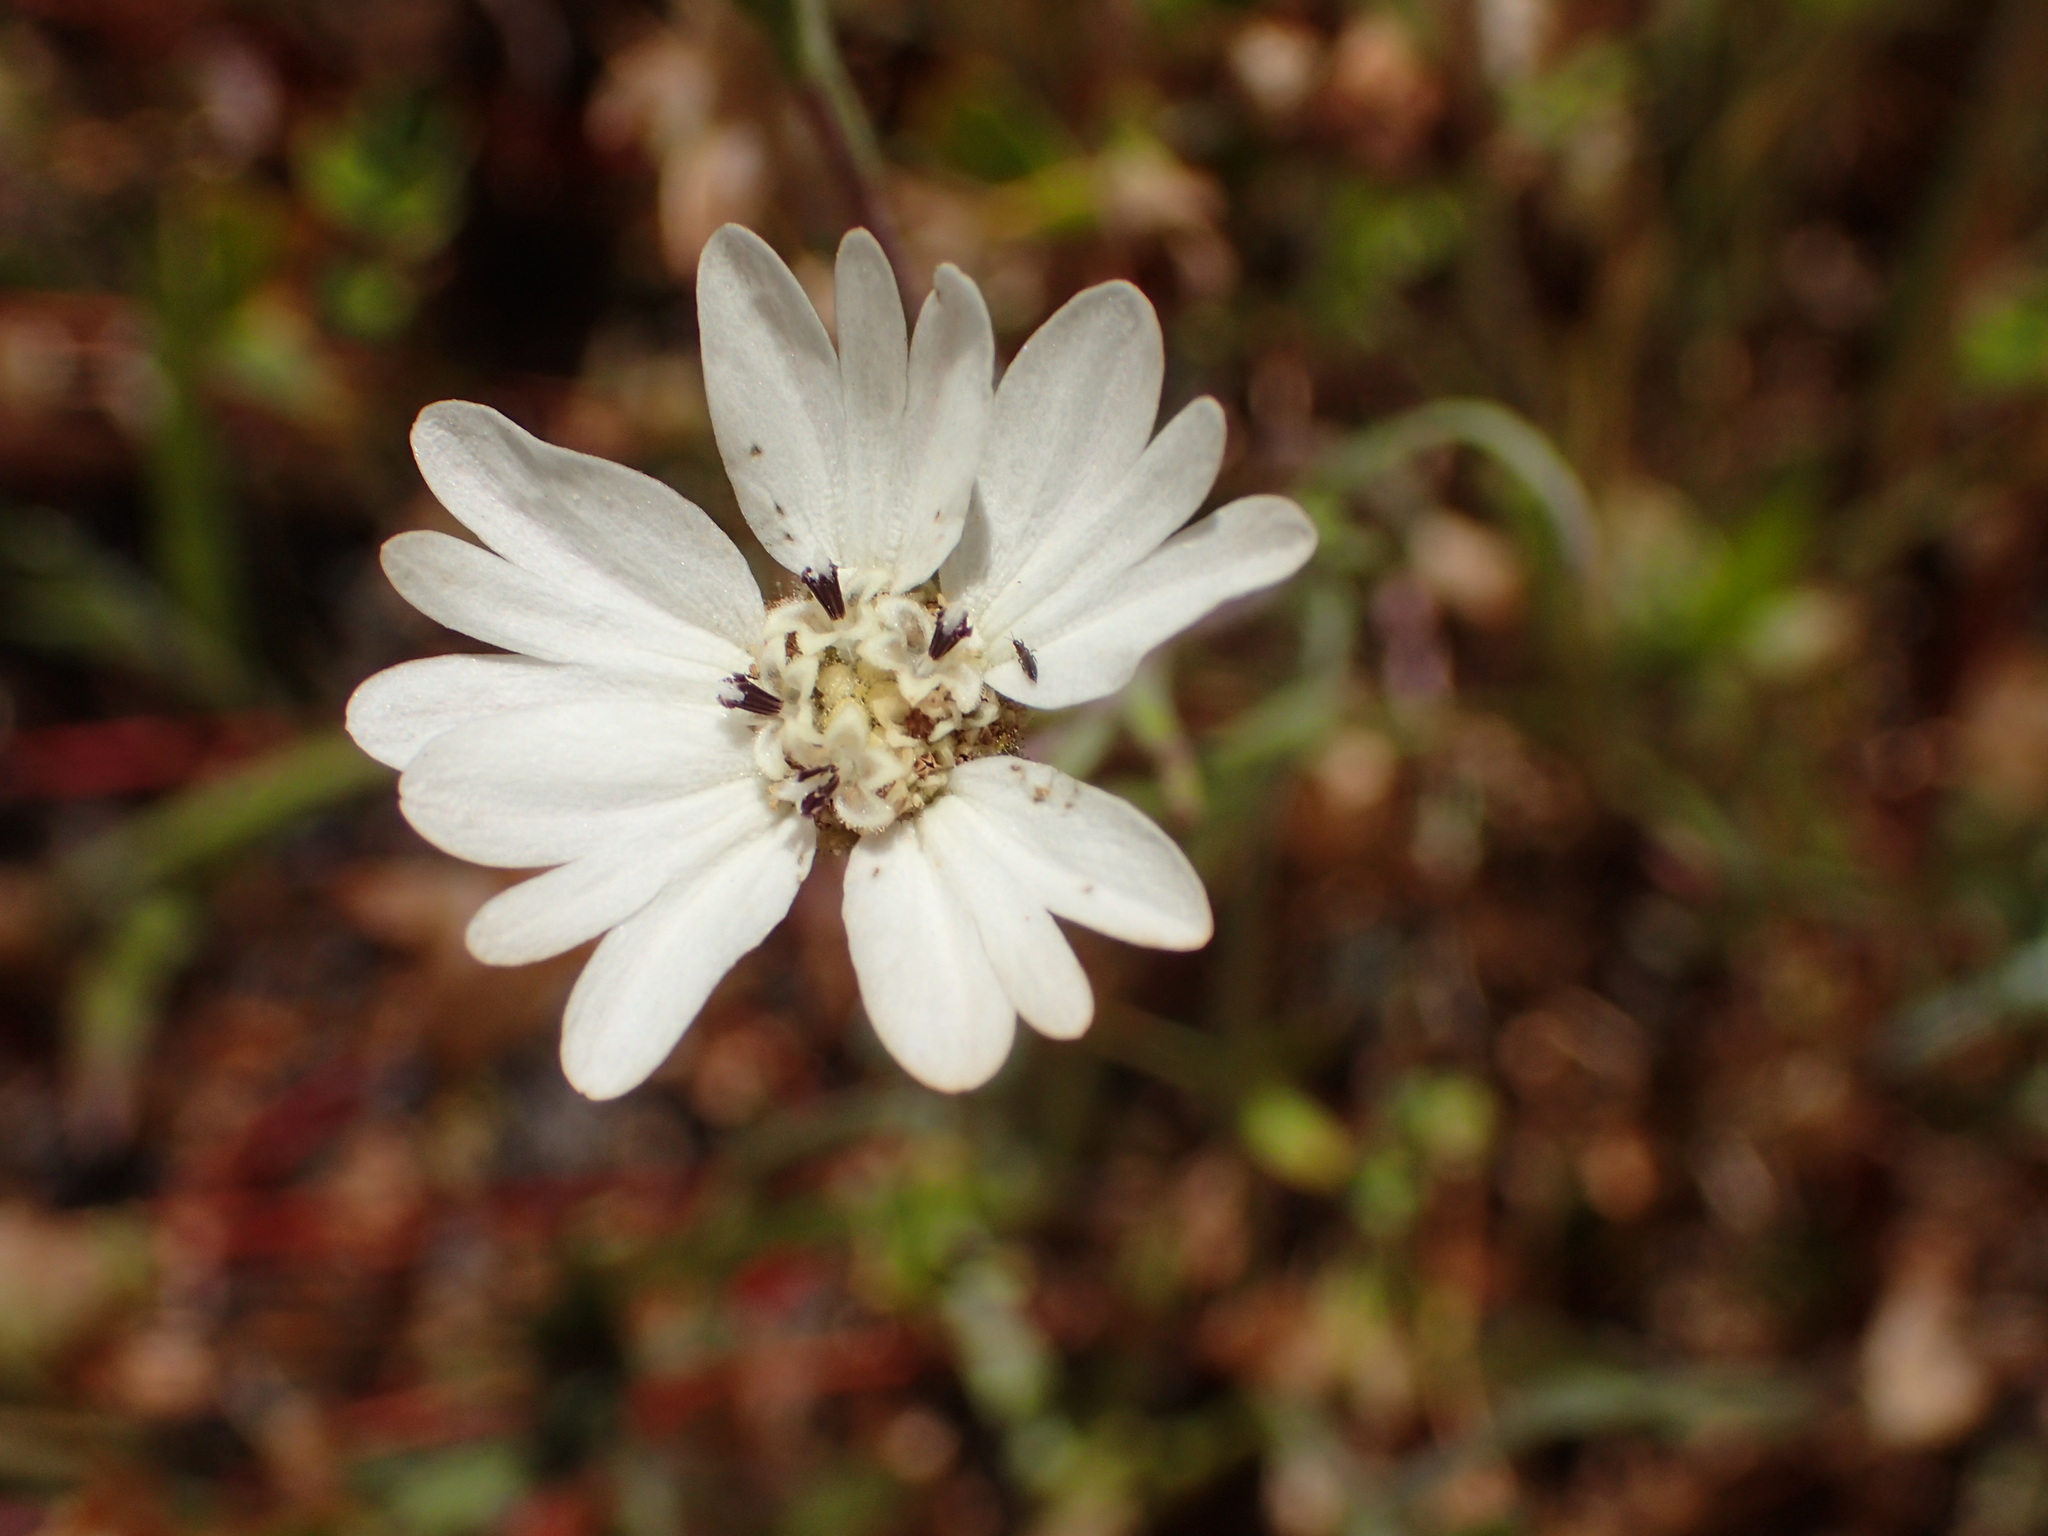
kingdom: Plantae
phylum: Tracheophyta
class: Magnoliopsida
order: Asterales
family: Asteraceae
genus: Hemizonia
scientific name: Hemizonia congesta
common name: Hayfield tarweed
